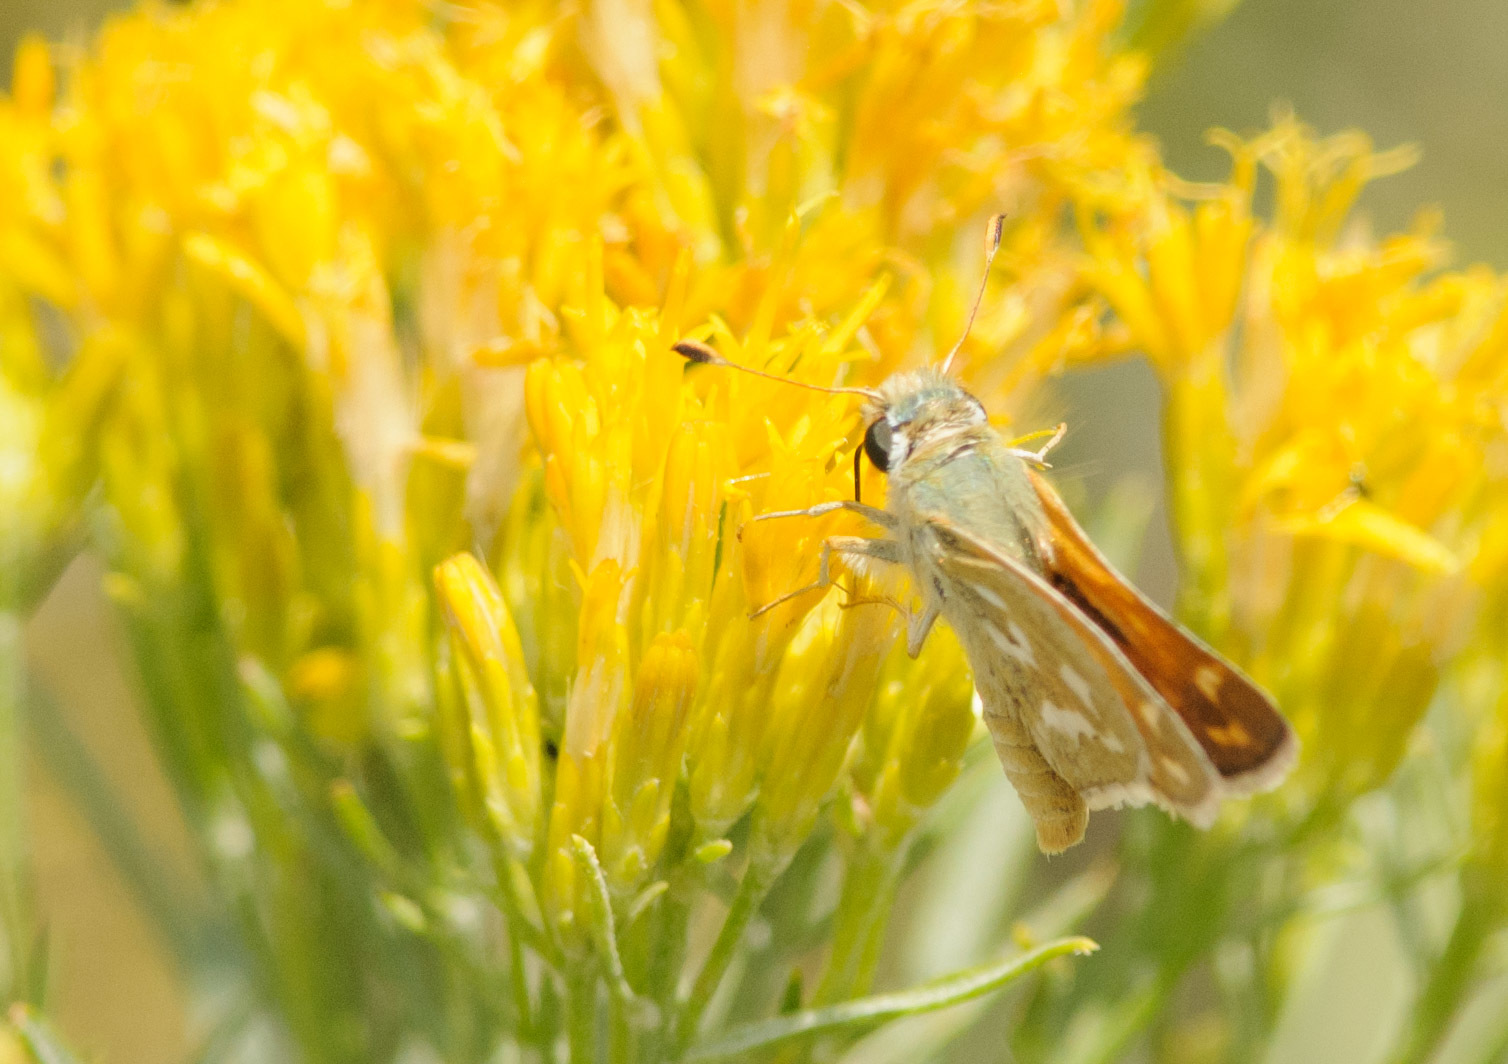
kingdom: Animalia
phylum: Arthropoda
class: Insecta
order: Lepidoptera
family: Hesperiidae
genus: Hesperia
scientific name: Hesperia comma
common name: Common branded skipper
